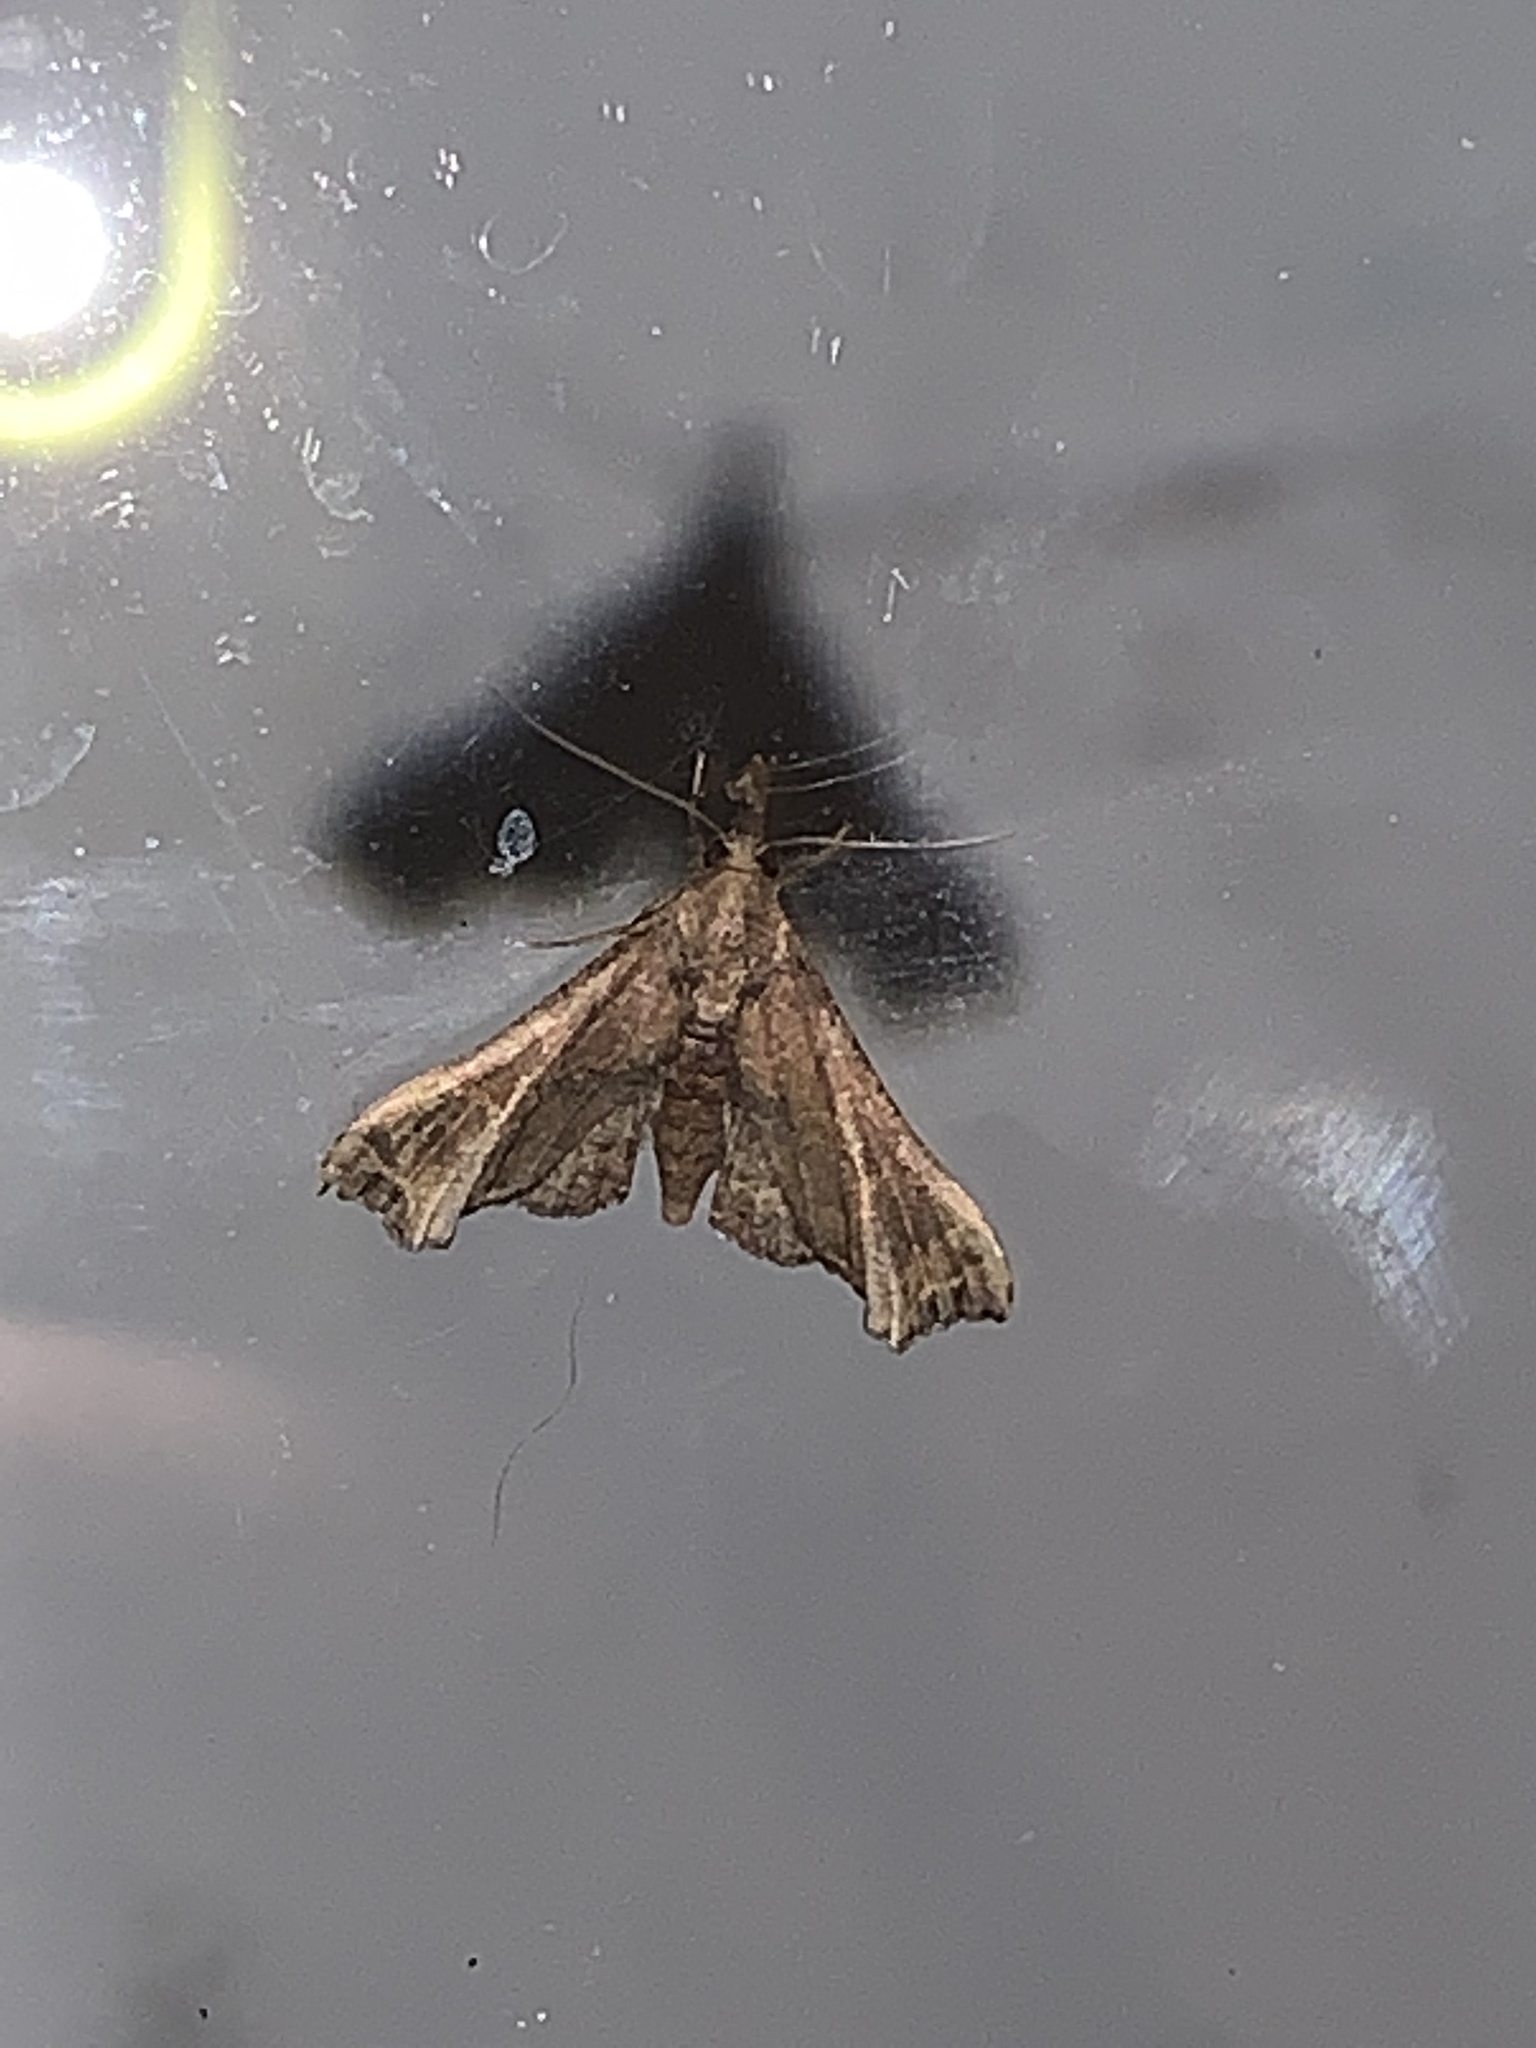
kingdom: Animalia
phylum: Arthropoda
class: Insecta
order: Lepidoptera
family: Erebidae
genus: Palthis
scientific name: Palthis asopialis
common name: Faint-spotted palthis moth
